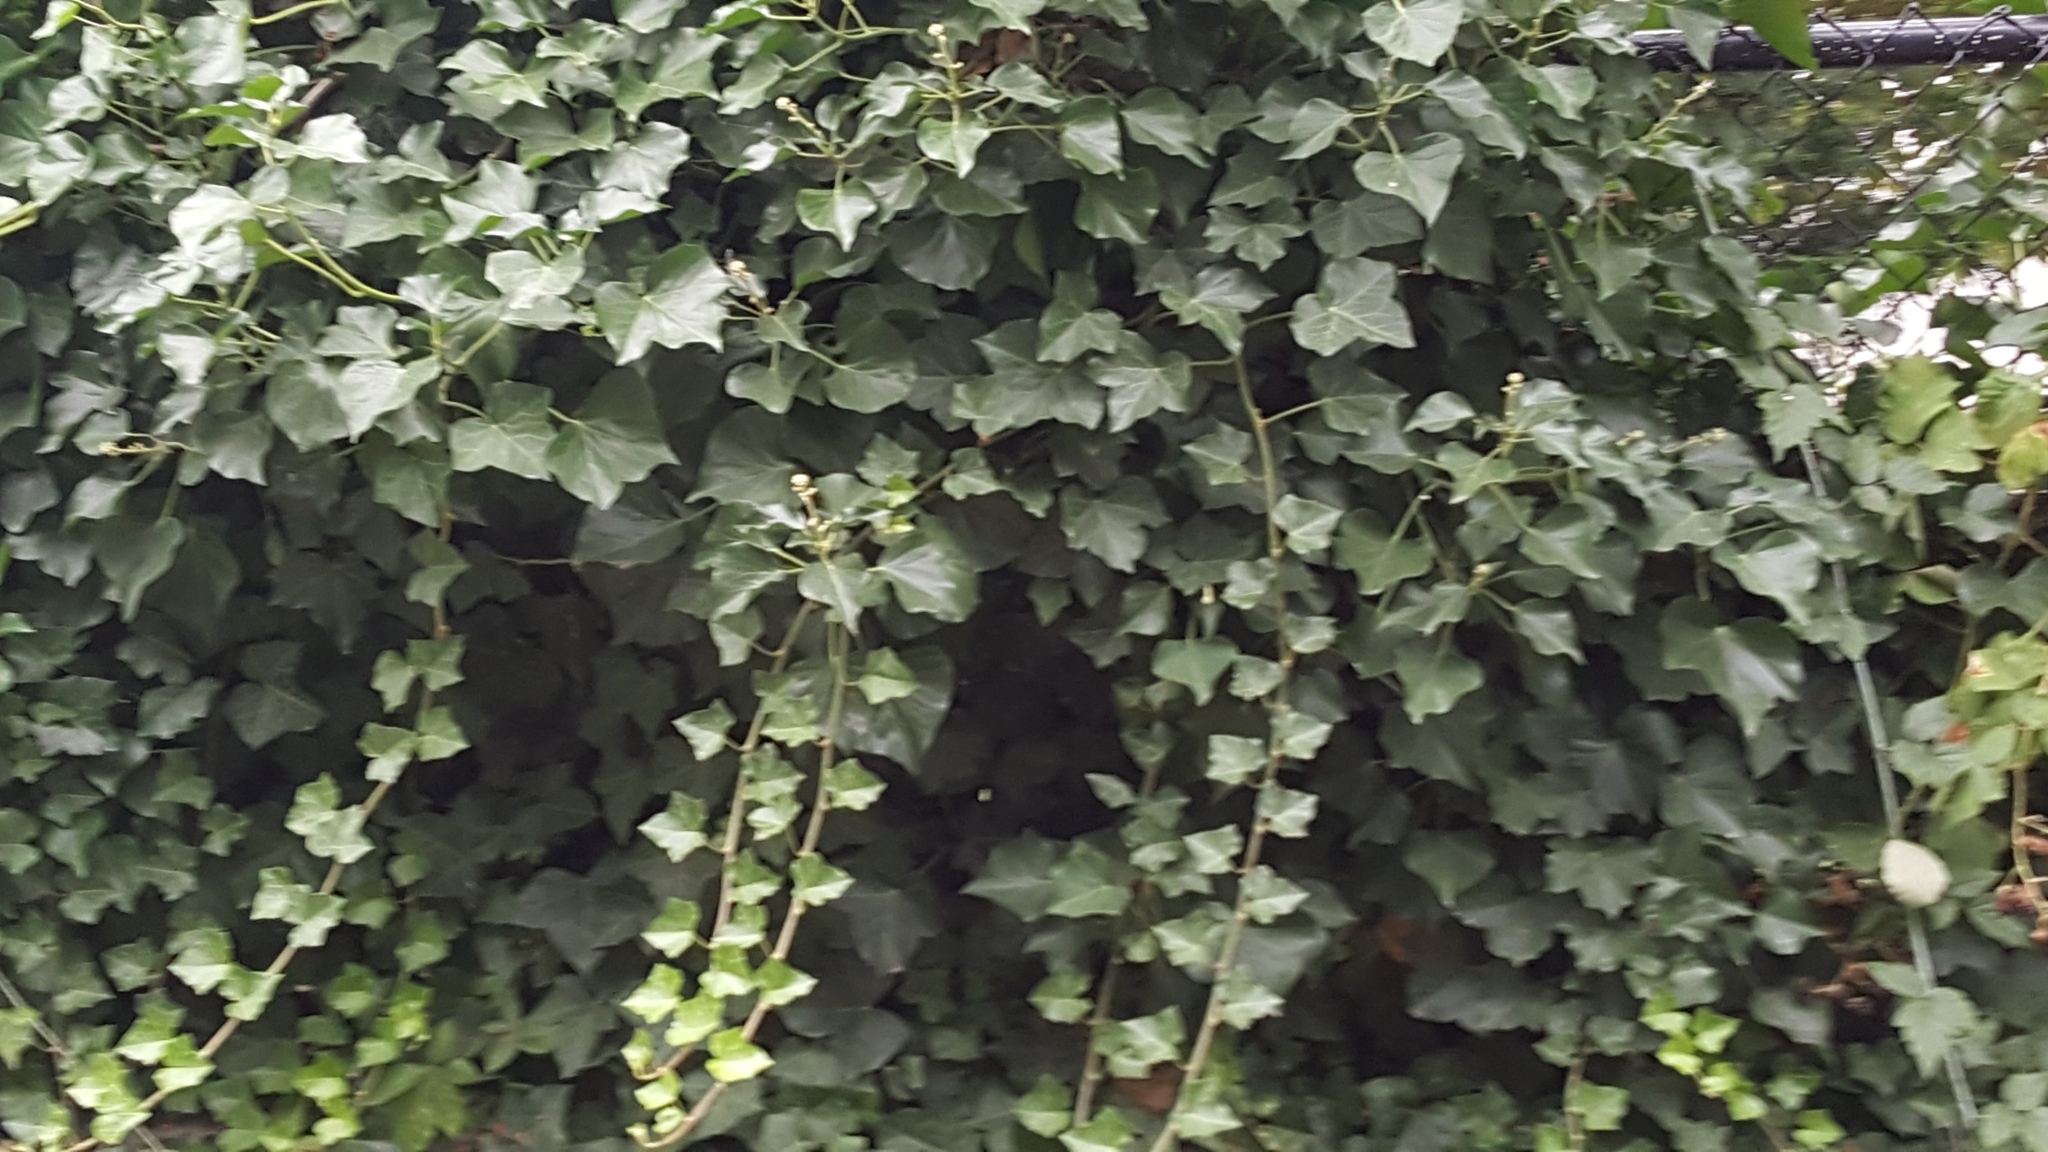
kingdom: Plantae
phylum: Tracheophyta
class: Magnoliopsida
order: Apiales
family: Araliaceae
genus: Hedera
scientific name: Hedera helix
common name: Ivy
